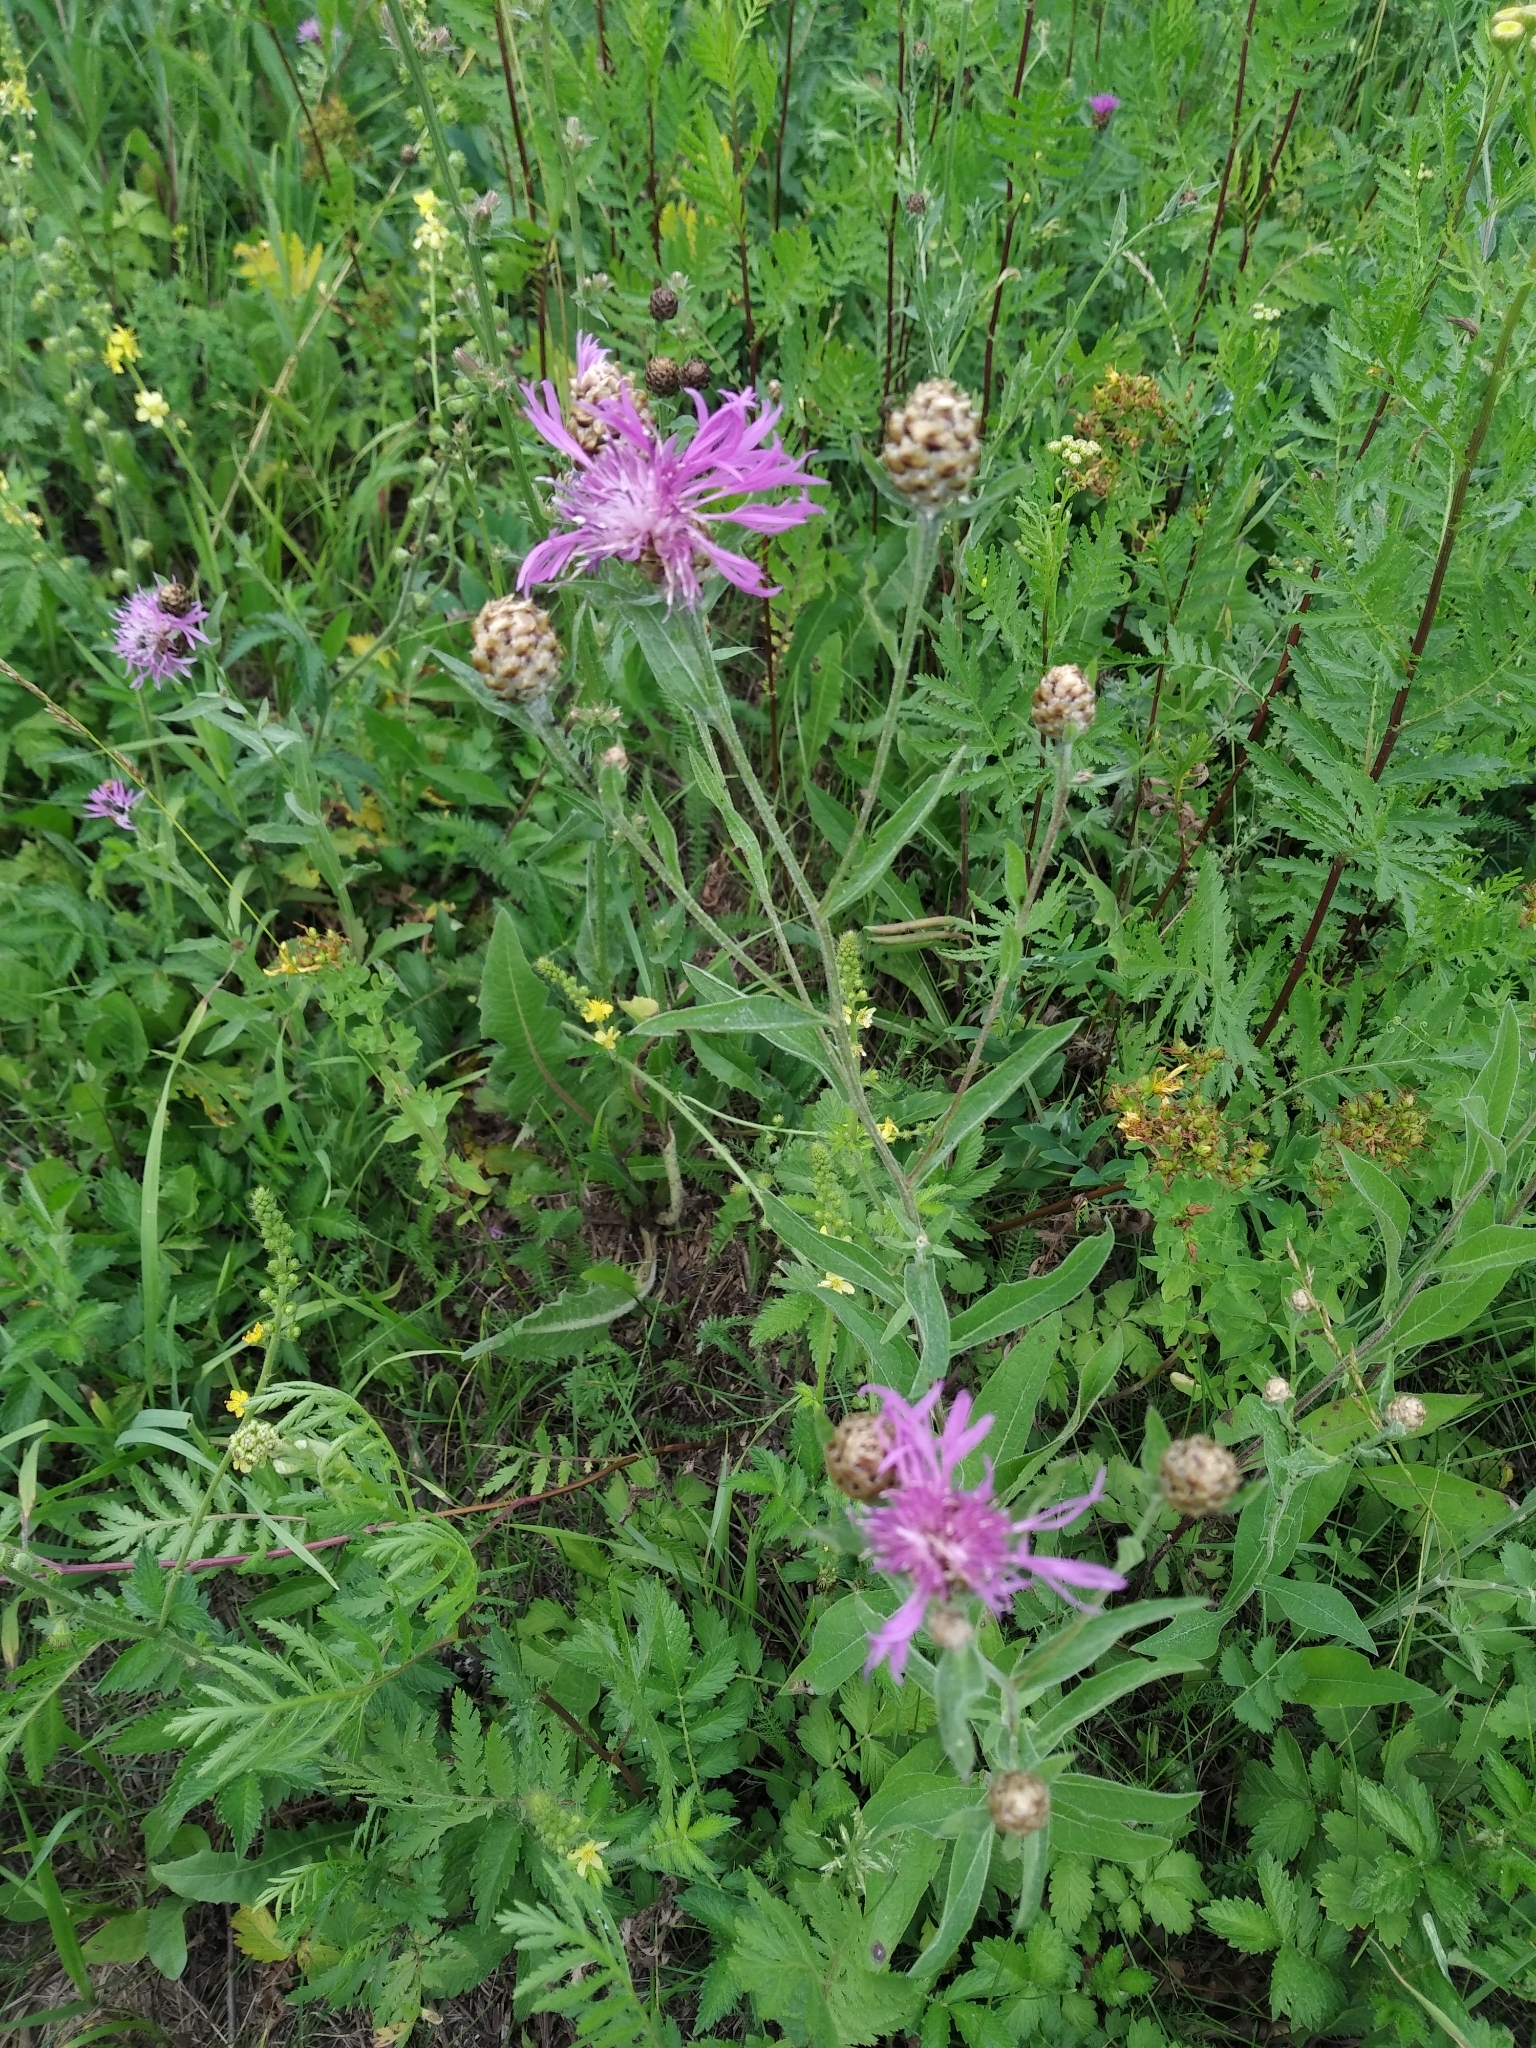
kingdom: Plantae
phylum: Tracheophyta
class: Magnoliopsida
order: Asterales
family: Asteraceae
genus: Centaurea
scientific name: Centaurea jacea
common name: Brown knapweed
